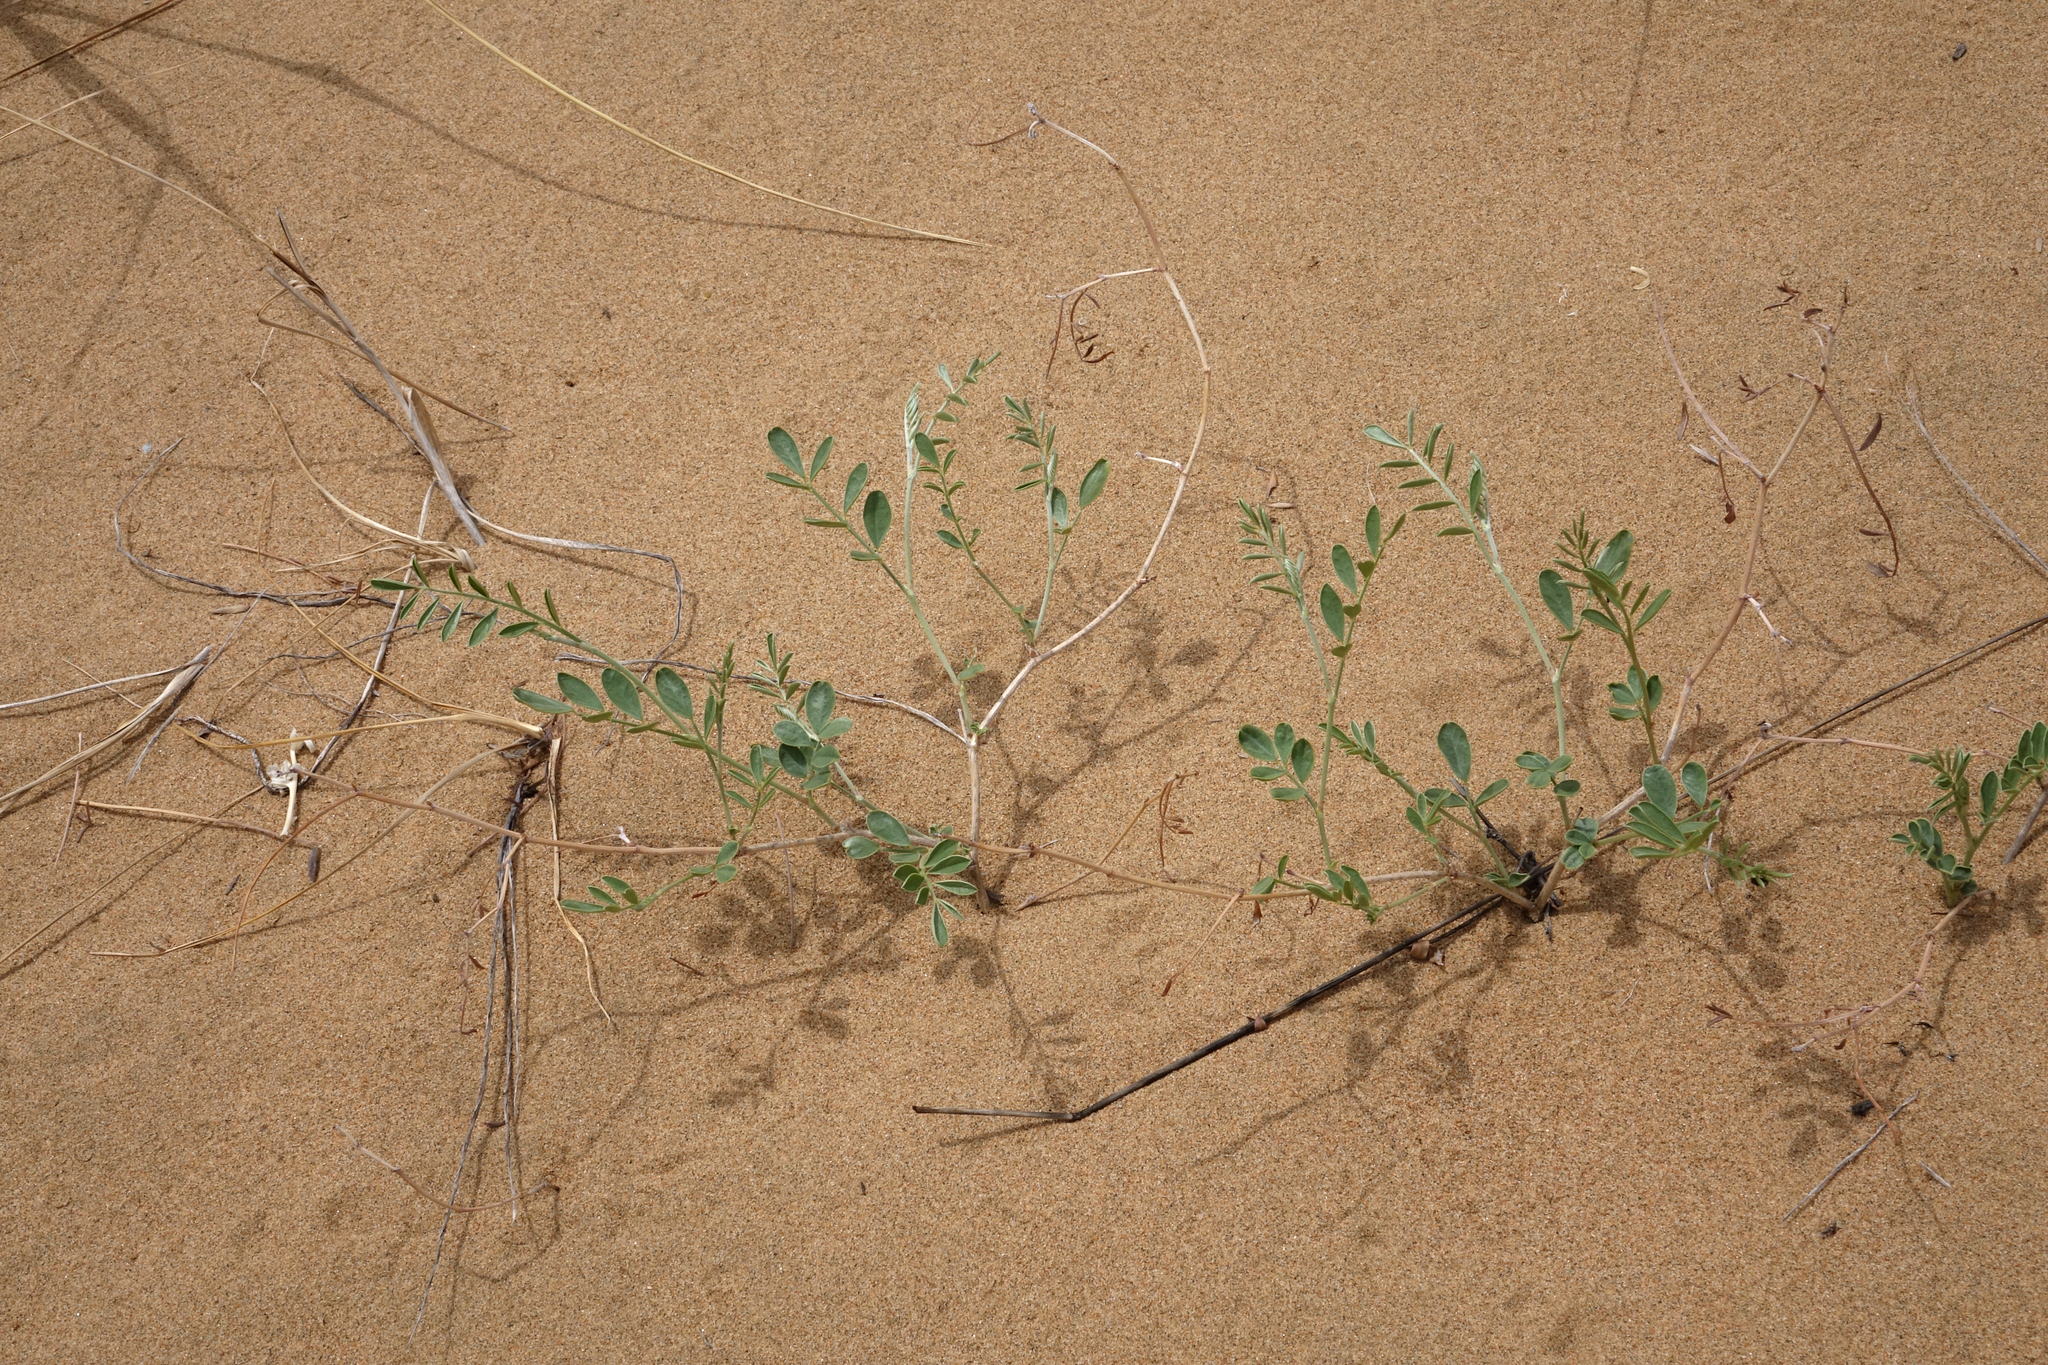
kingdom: Plantae
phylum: Tracheophyta
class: Magnoliopsida
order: Fabales
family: Fabaceae
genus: Corethrodendron
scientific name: Corethrodendron fruticosum
